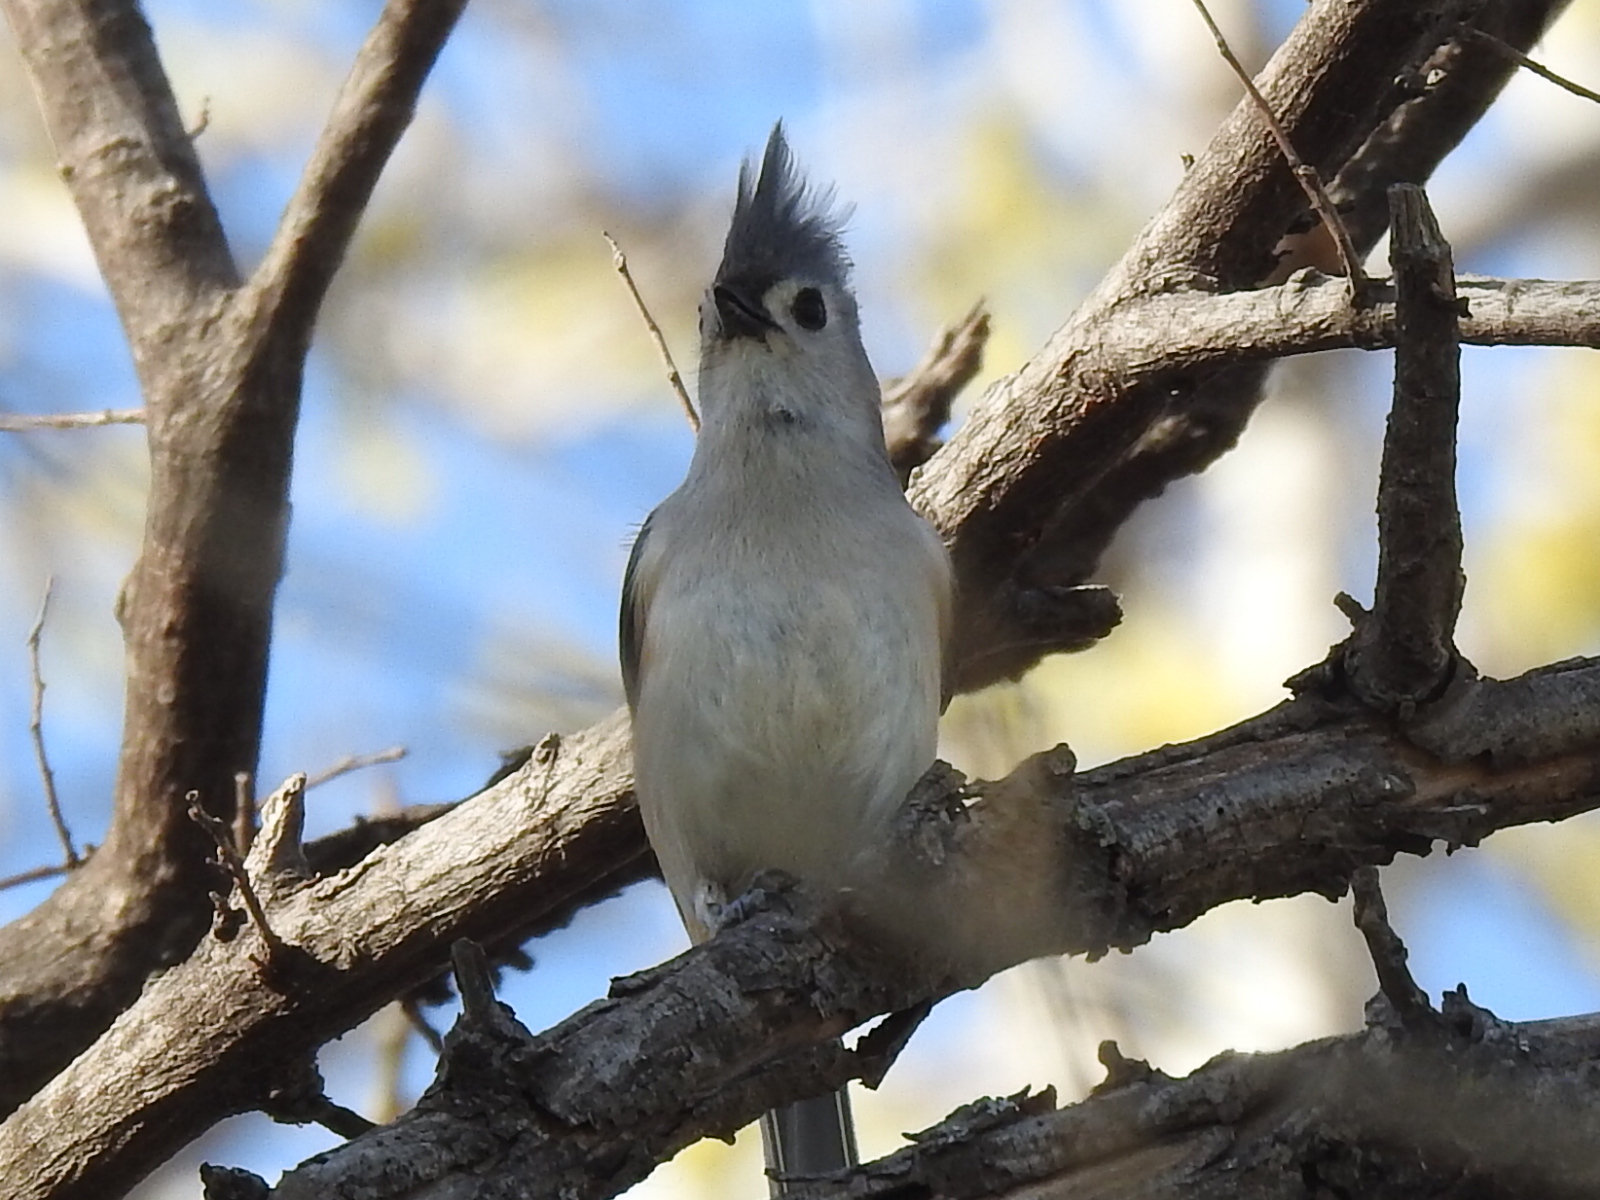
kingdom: Animalia
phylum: Chordata
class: Aves
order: Passeriformes
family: Paridae
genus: Baeolophus
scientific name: Baeolophus bicolor
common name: Tufted titmouse
